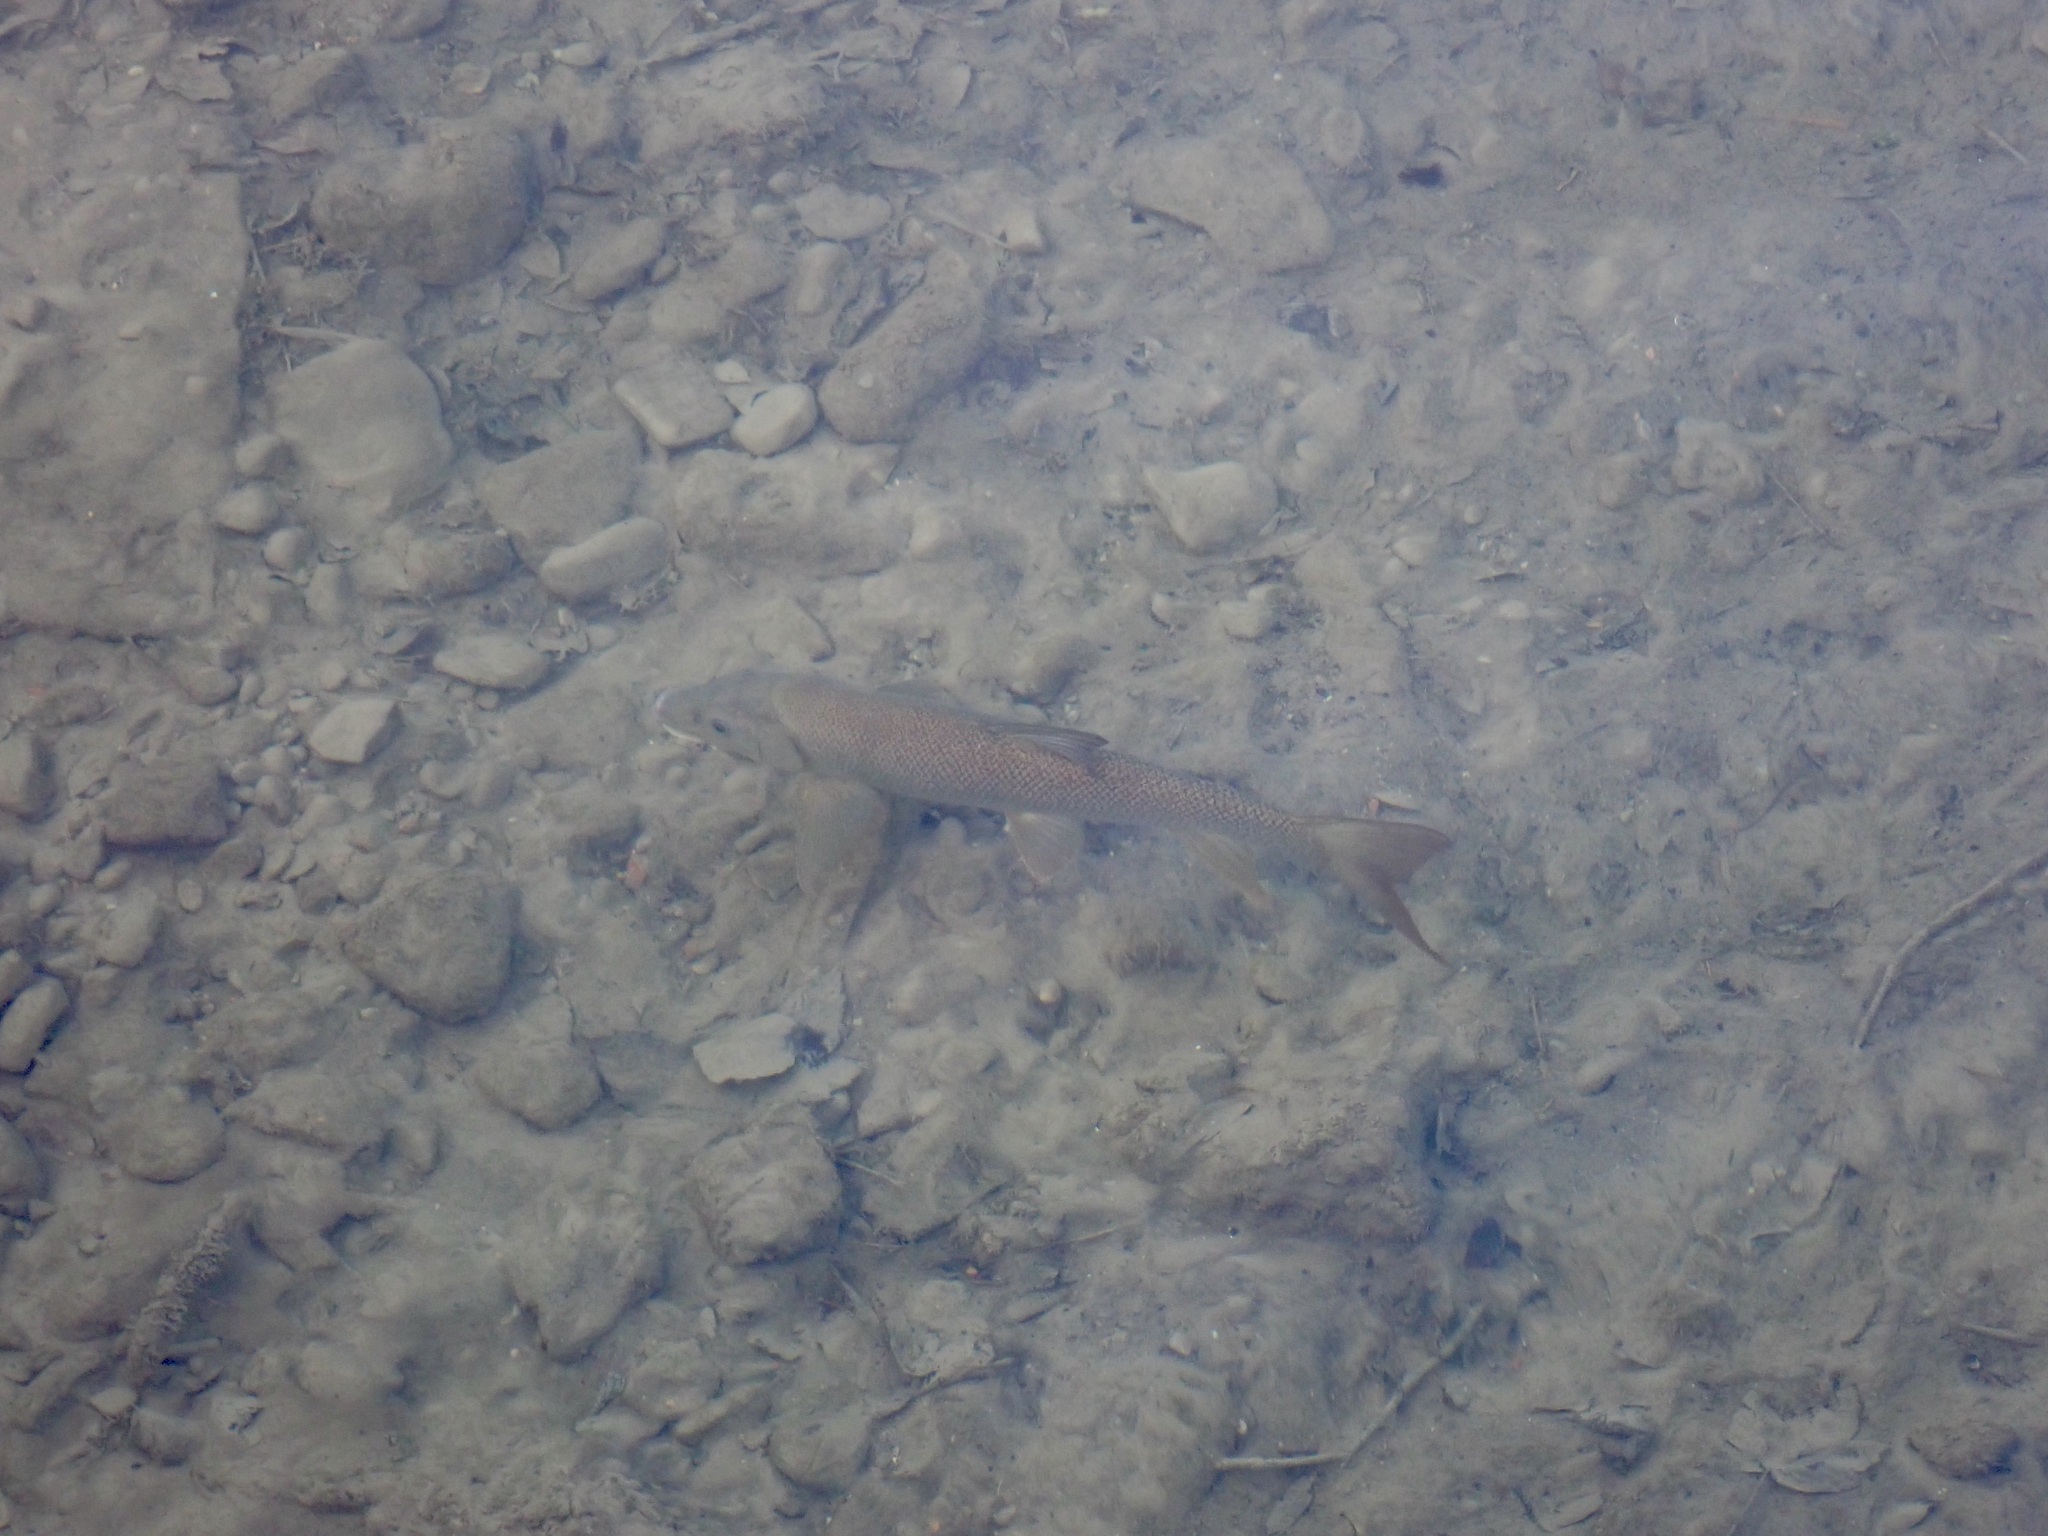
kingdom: Animalia
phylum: Chordata
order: Cypriniformes
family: Cyprinidae
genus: Barbus
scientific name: Barbus barbus
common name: Barbel
